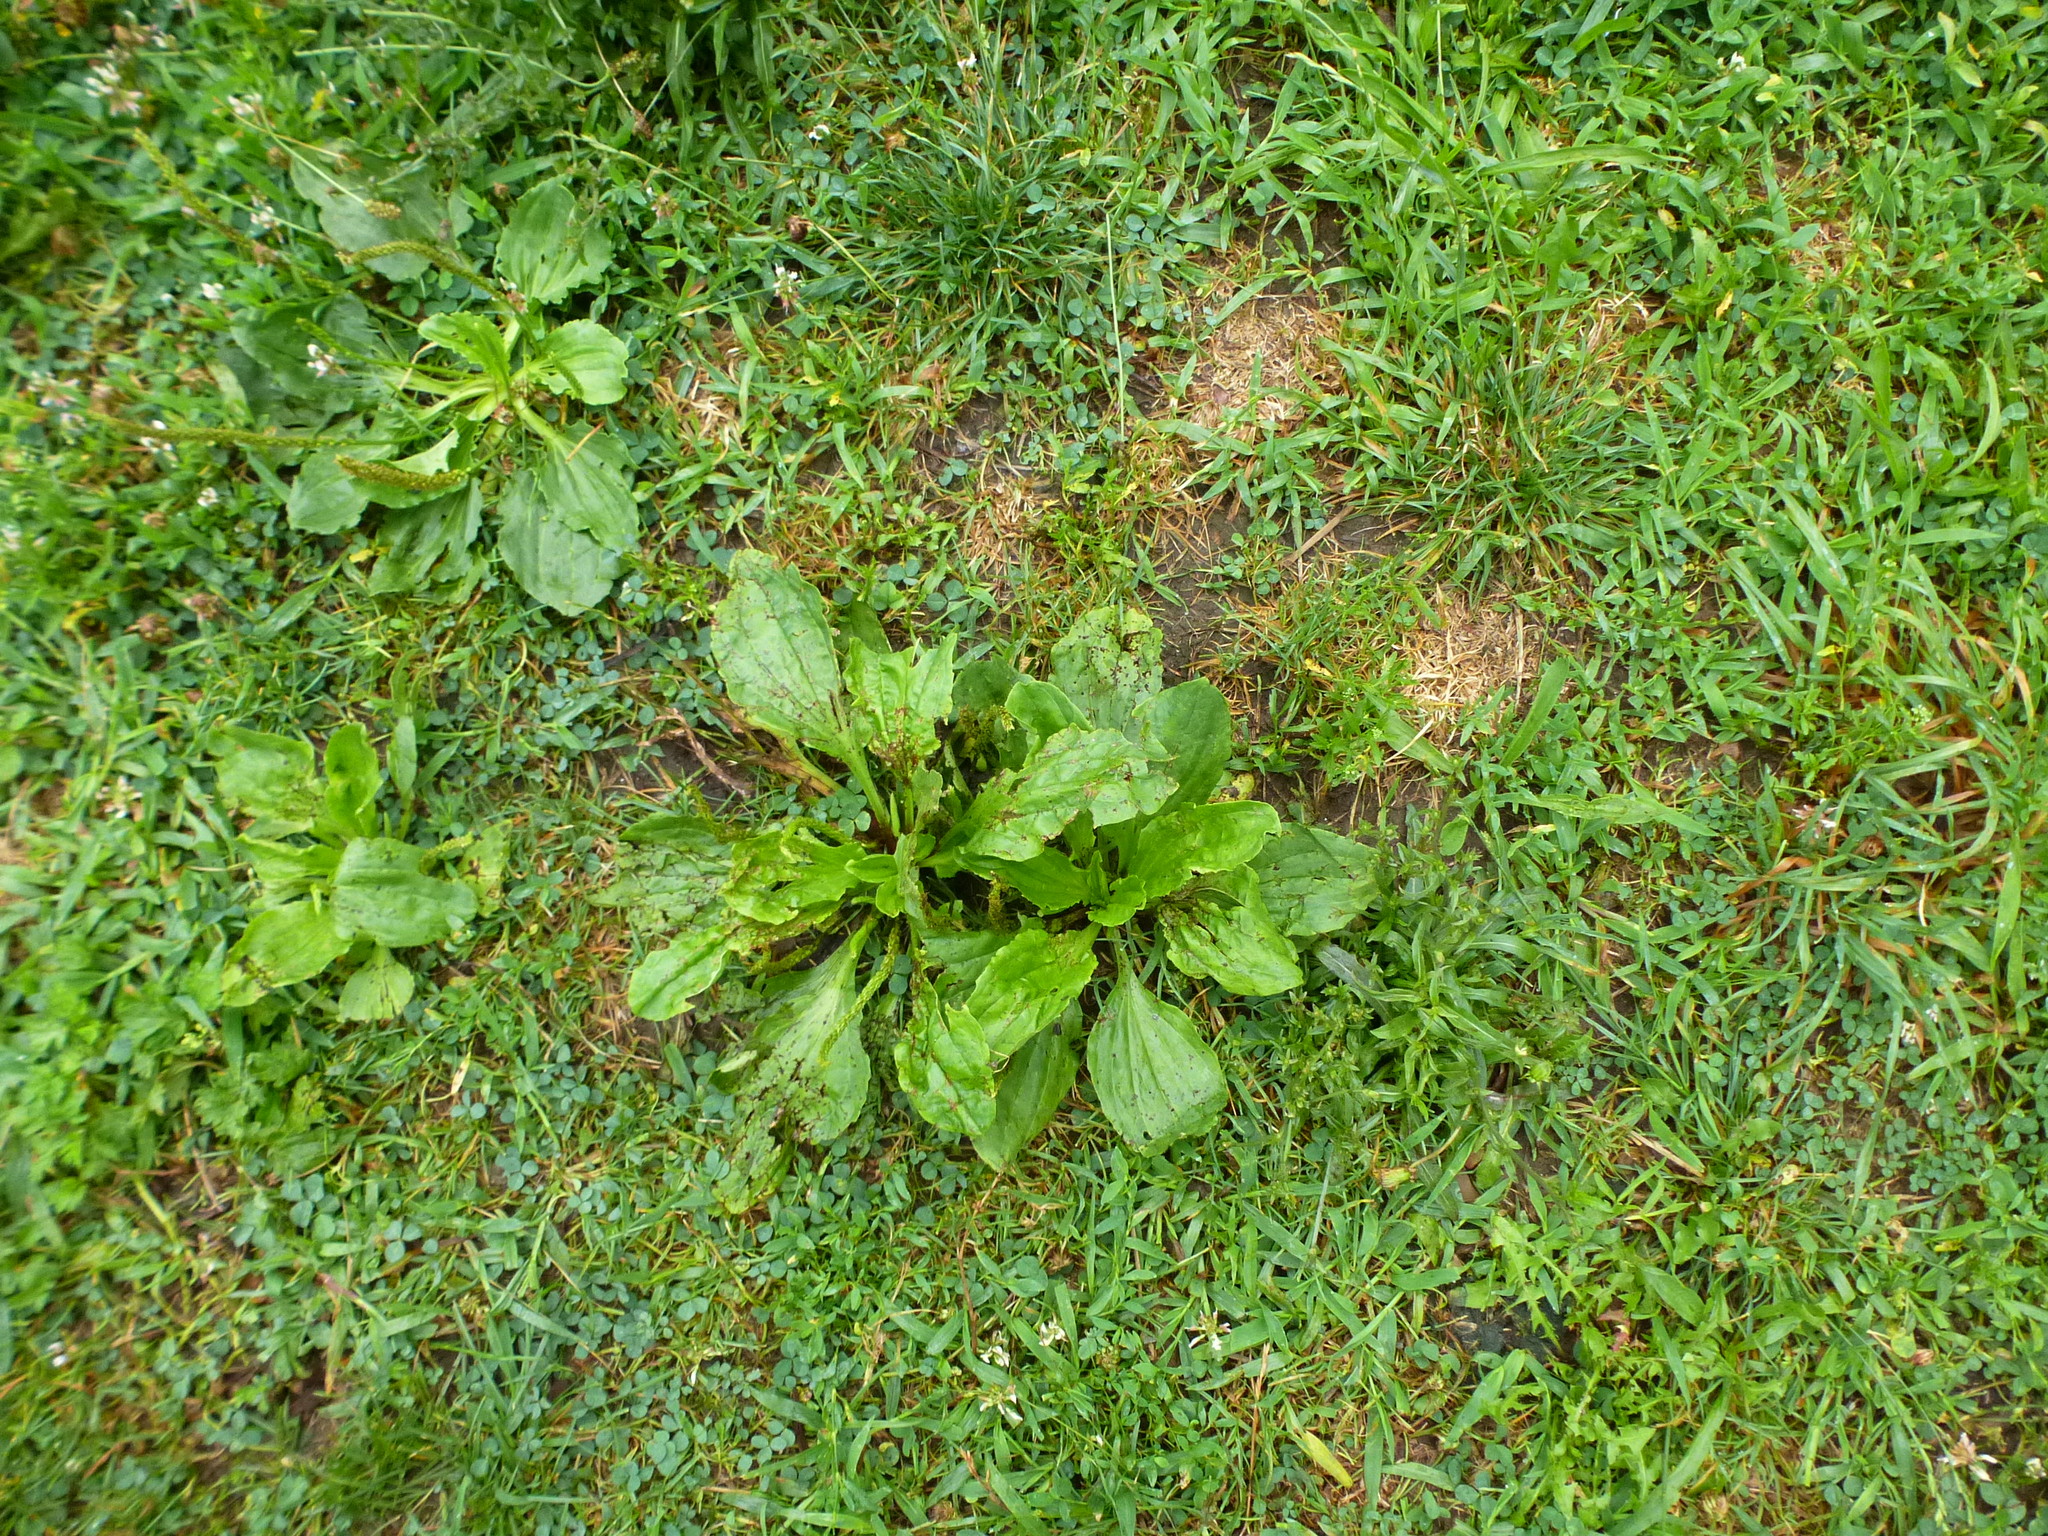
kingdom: Plantae
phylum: Tracheophyta
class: Magnoliopsida
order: Lamiales
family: Plantaginaceae
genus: Plantago
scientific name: Plantago rugelii
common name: American plantain
